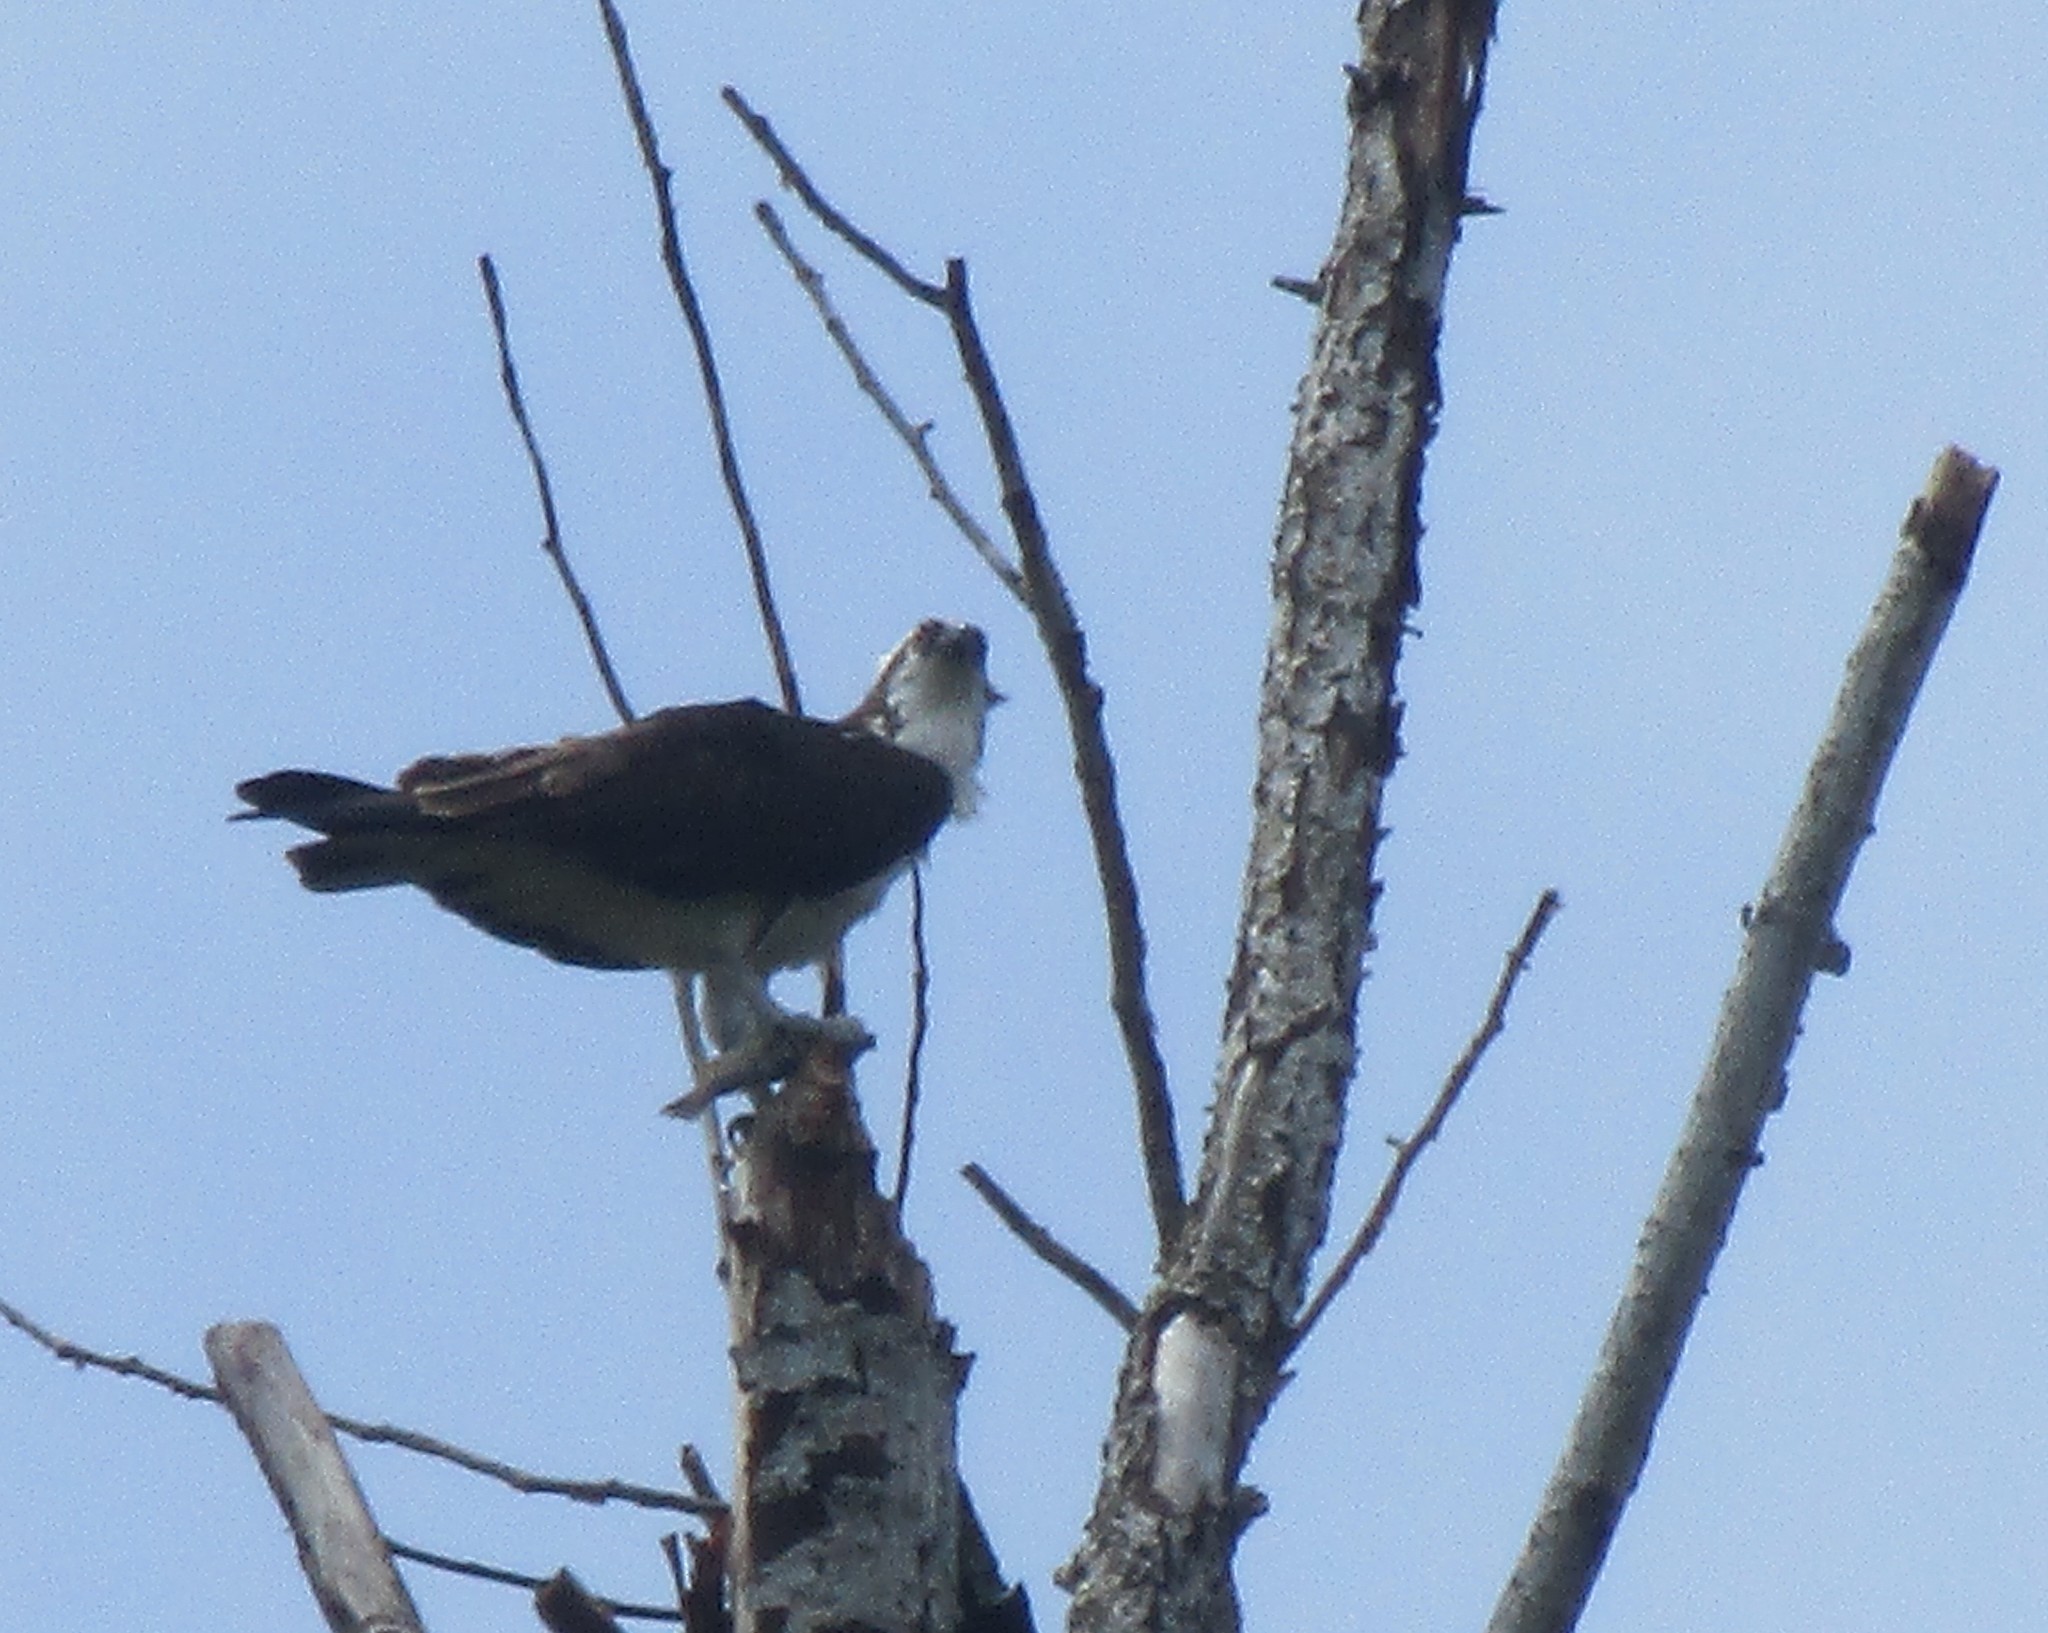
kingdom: Animalia
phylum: Chordata
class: Aves
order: Accipitriformes
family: Pandionidae
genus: Pandion
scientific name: Pandion haliaetus
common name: Osprey
